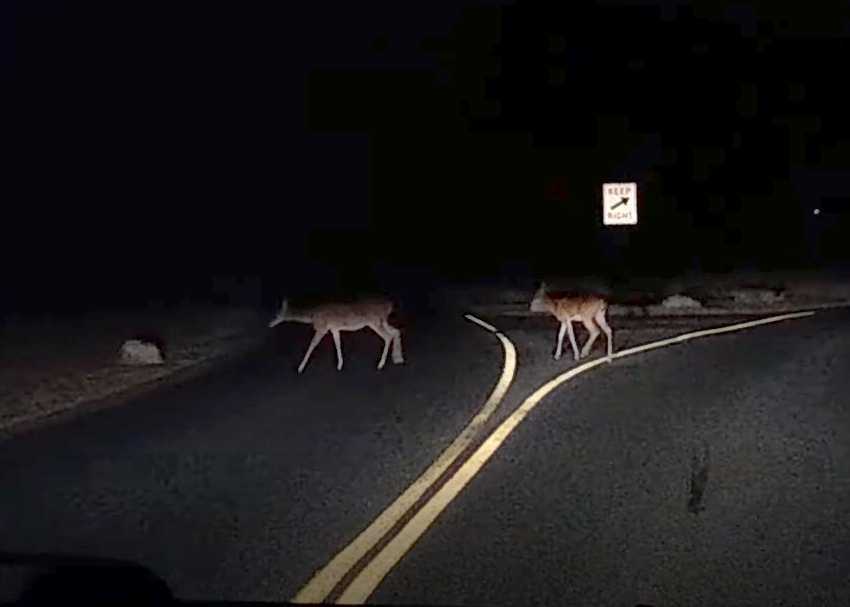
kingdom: Animalia
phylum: Chordata
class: Mammalia
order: Artiodactyla
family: Cervidae
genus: Odocoileus
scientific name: Odocoileus virginianus
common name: White-tailed deer
